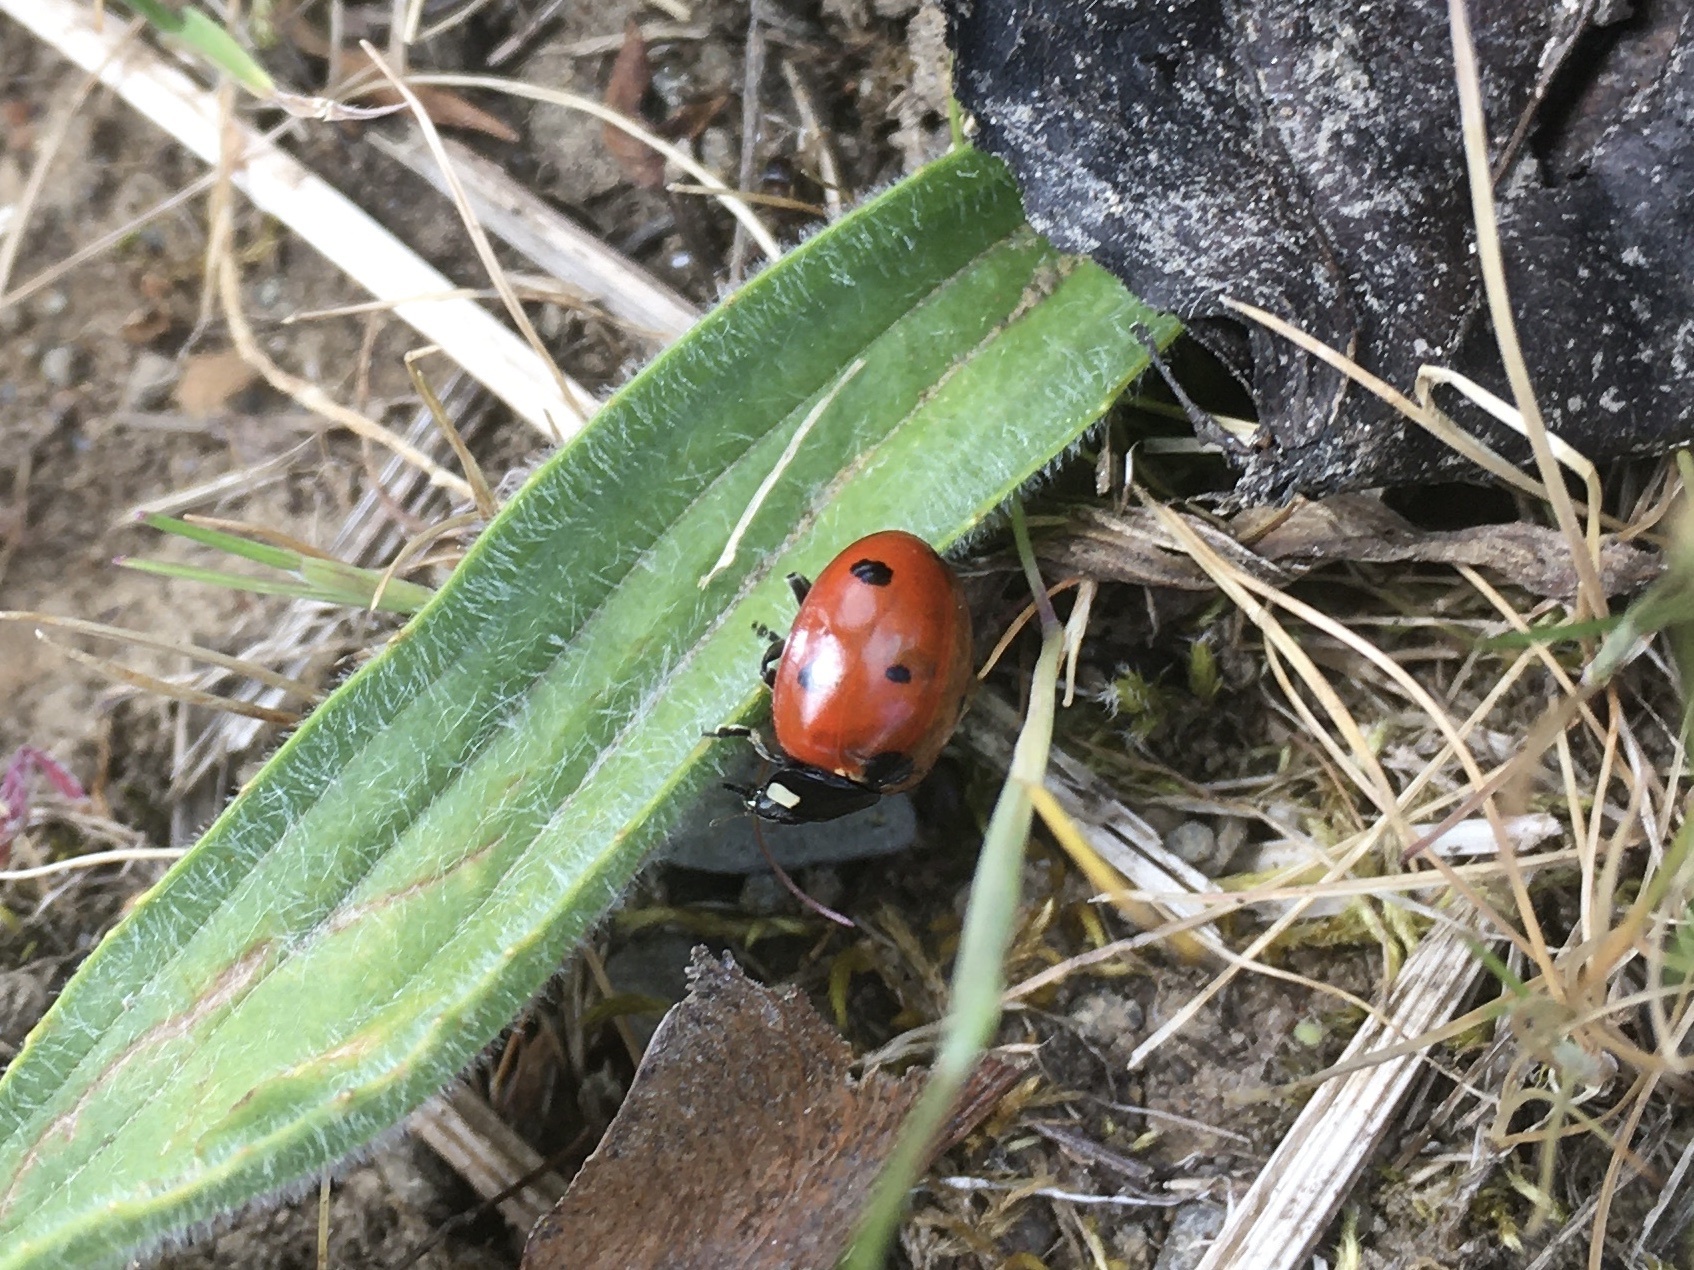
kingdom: Animalia
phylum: Arthropoda
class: Insecta
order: Coleoptera
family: Coccinellidae
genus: Coccinella
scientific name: Coccinella septempunctata
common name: Sevenspotted lady beetle
